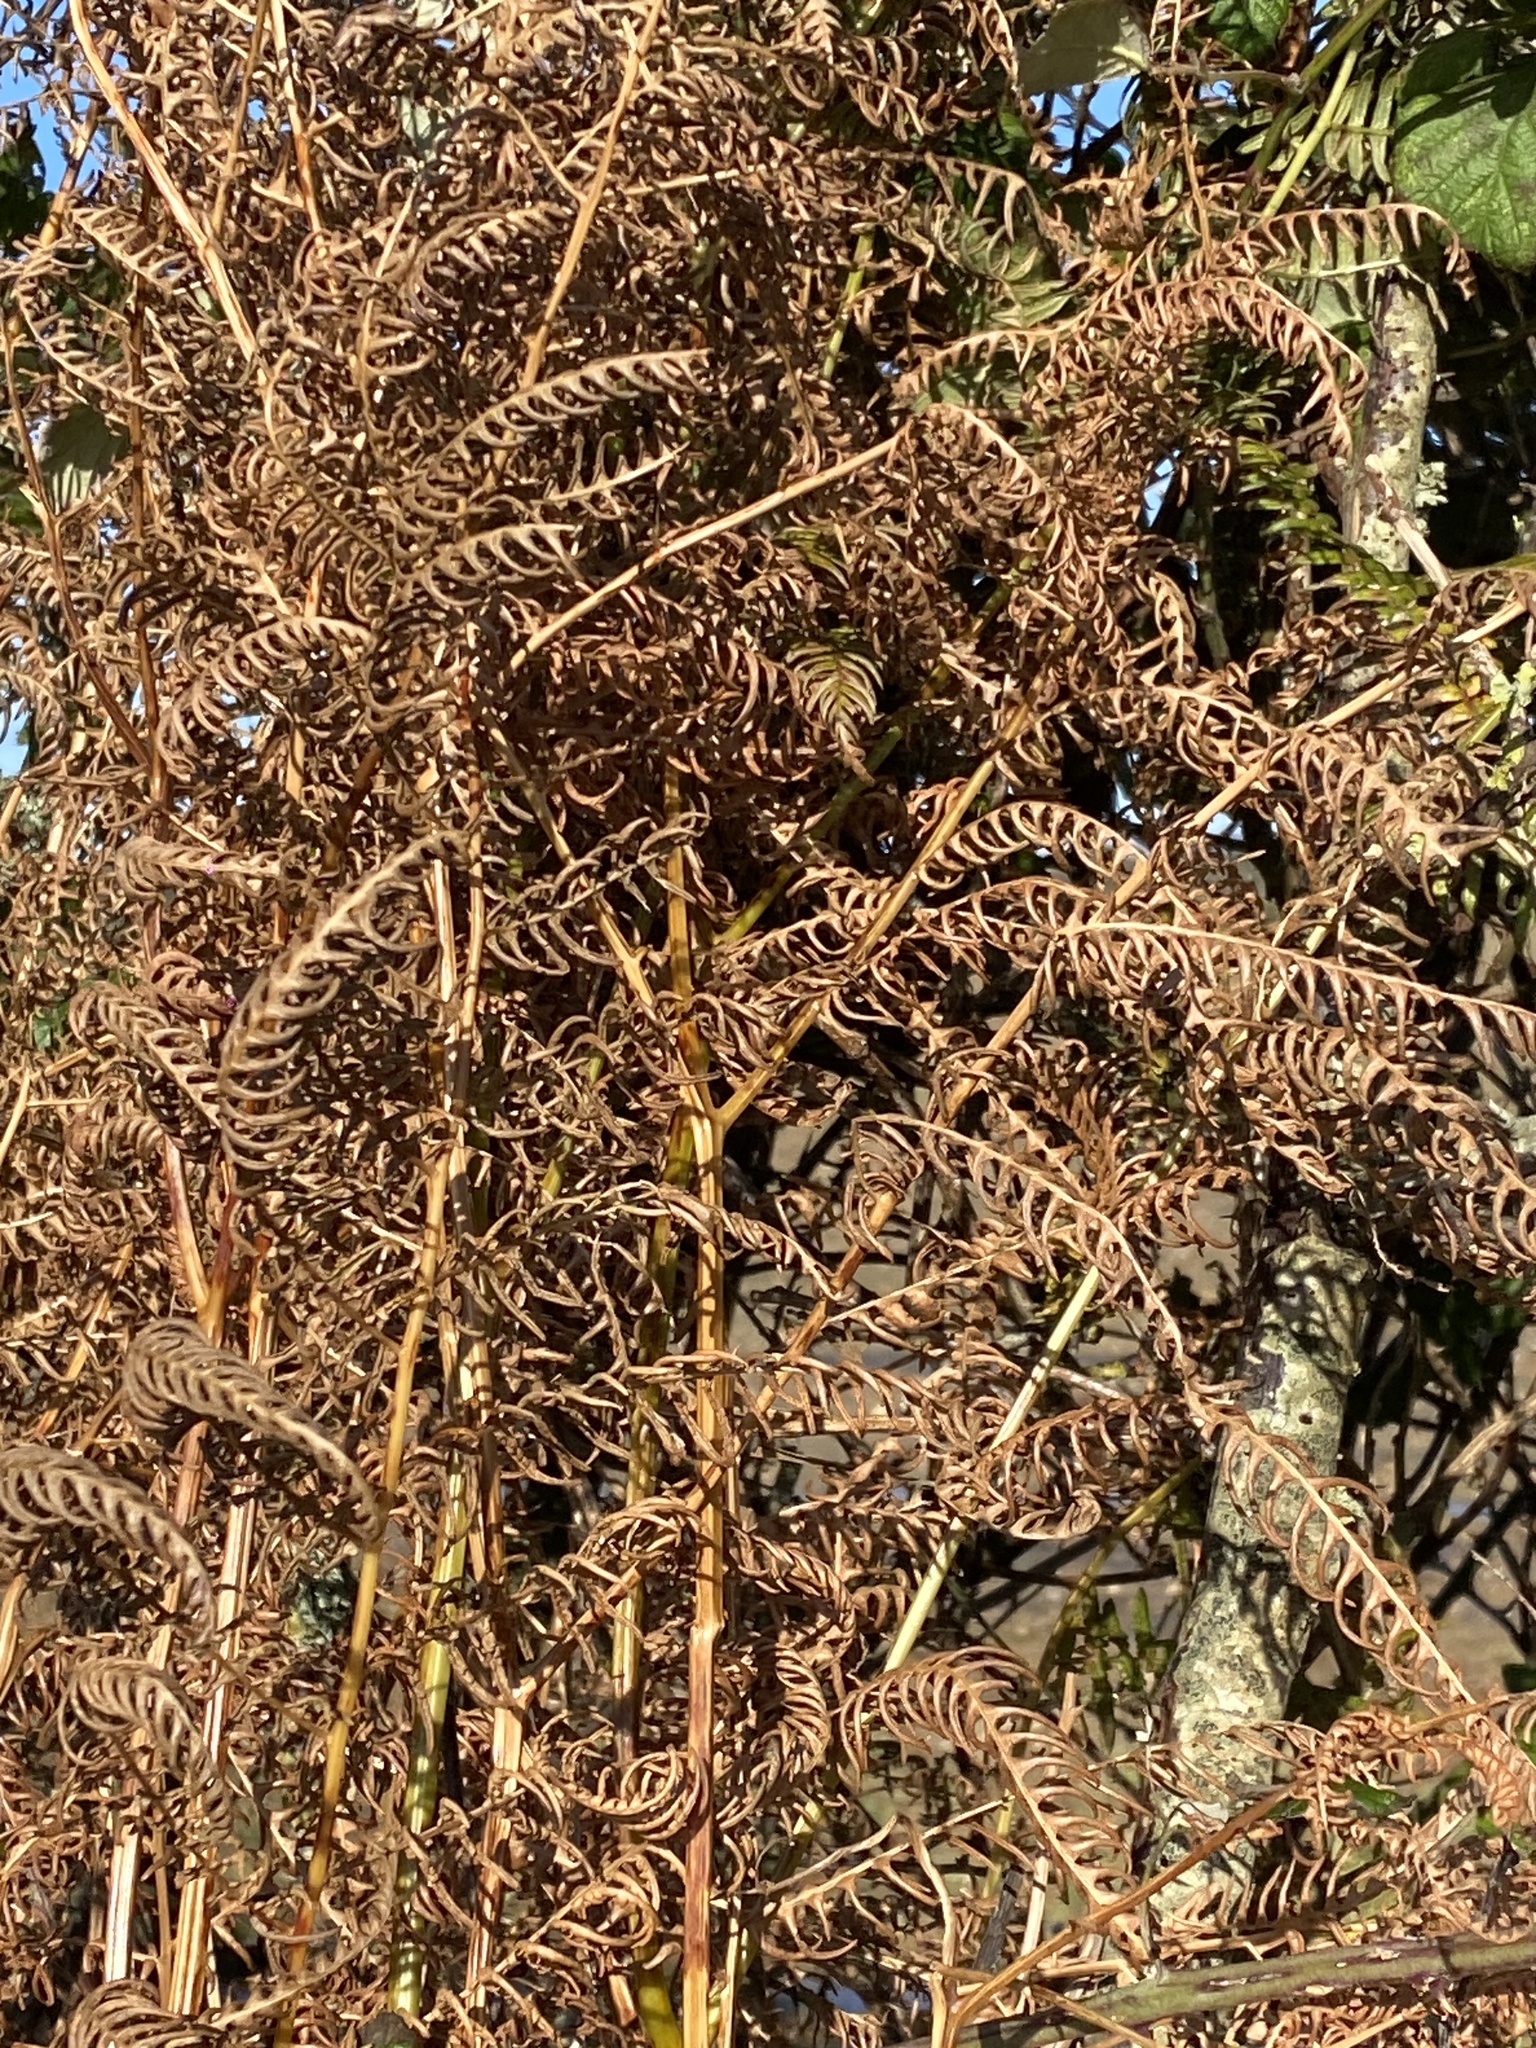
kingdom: Plantae
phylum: Tracheophyta
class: Polypodiopsida
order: Polypodiales
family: Dennstaedtiaceae
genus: Pteridium
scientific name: Pteridium aquilinum
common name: Bracken
